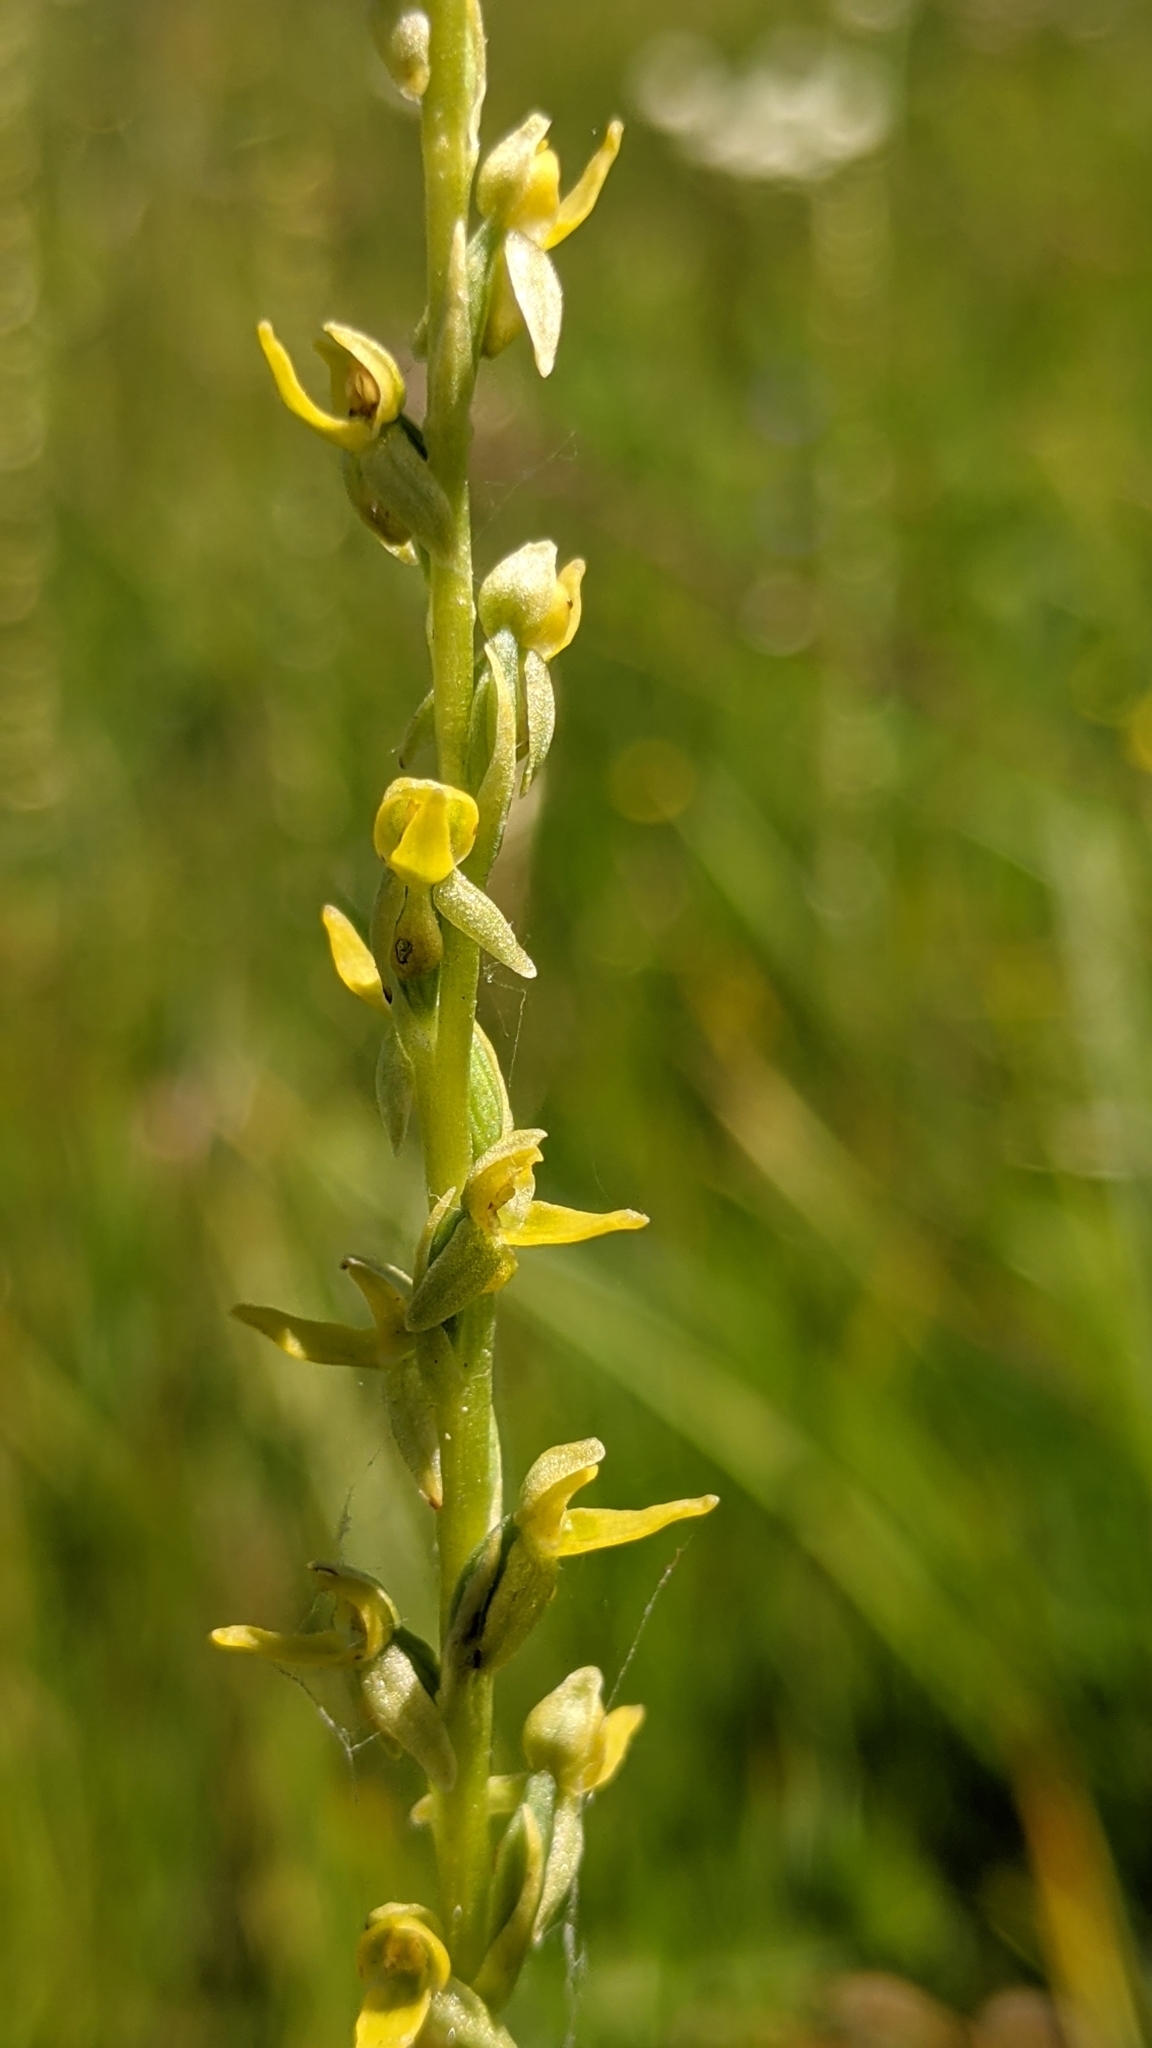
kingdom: Plantae
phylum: Tracheophyta
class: Liliopsida
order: Asparagales
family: Orchidaceae
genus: Platanthera
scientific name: Platanthera yosemitensis
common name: Yosemite bog orchid
